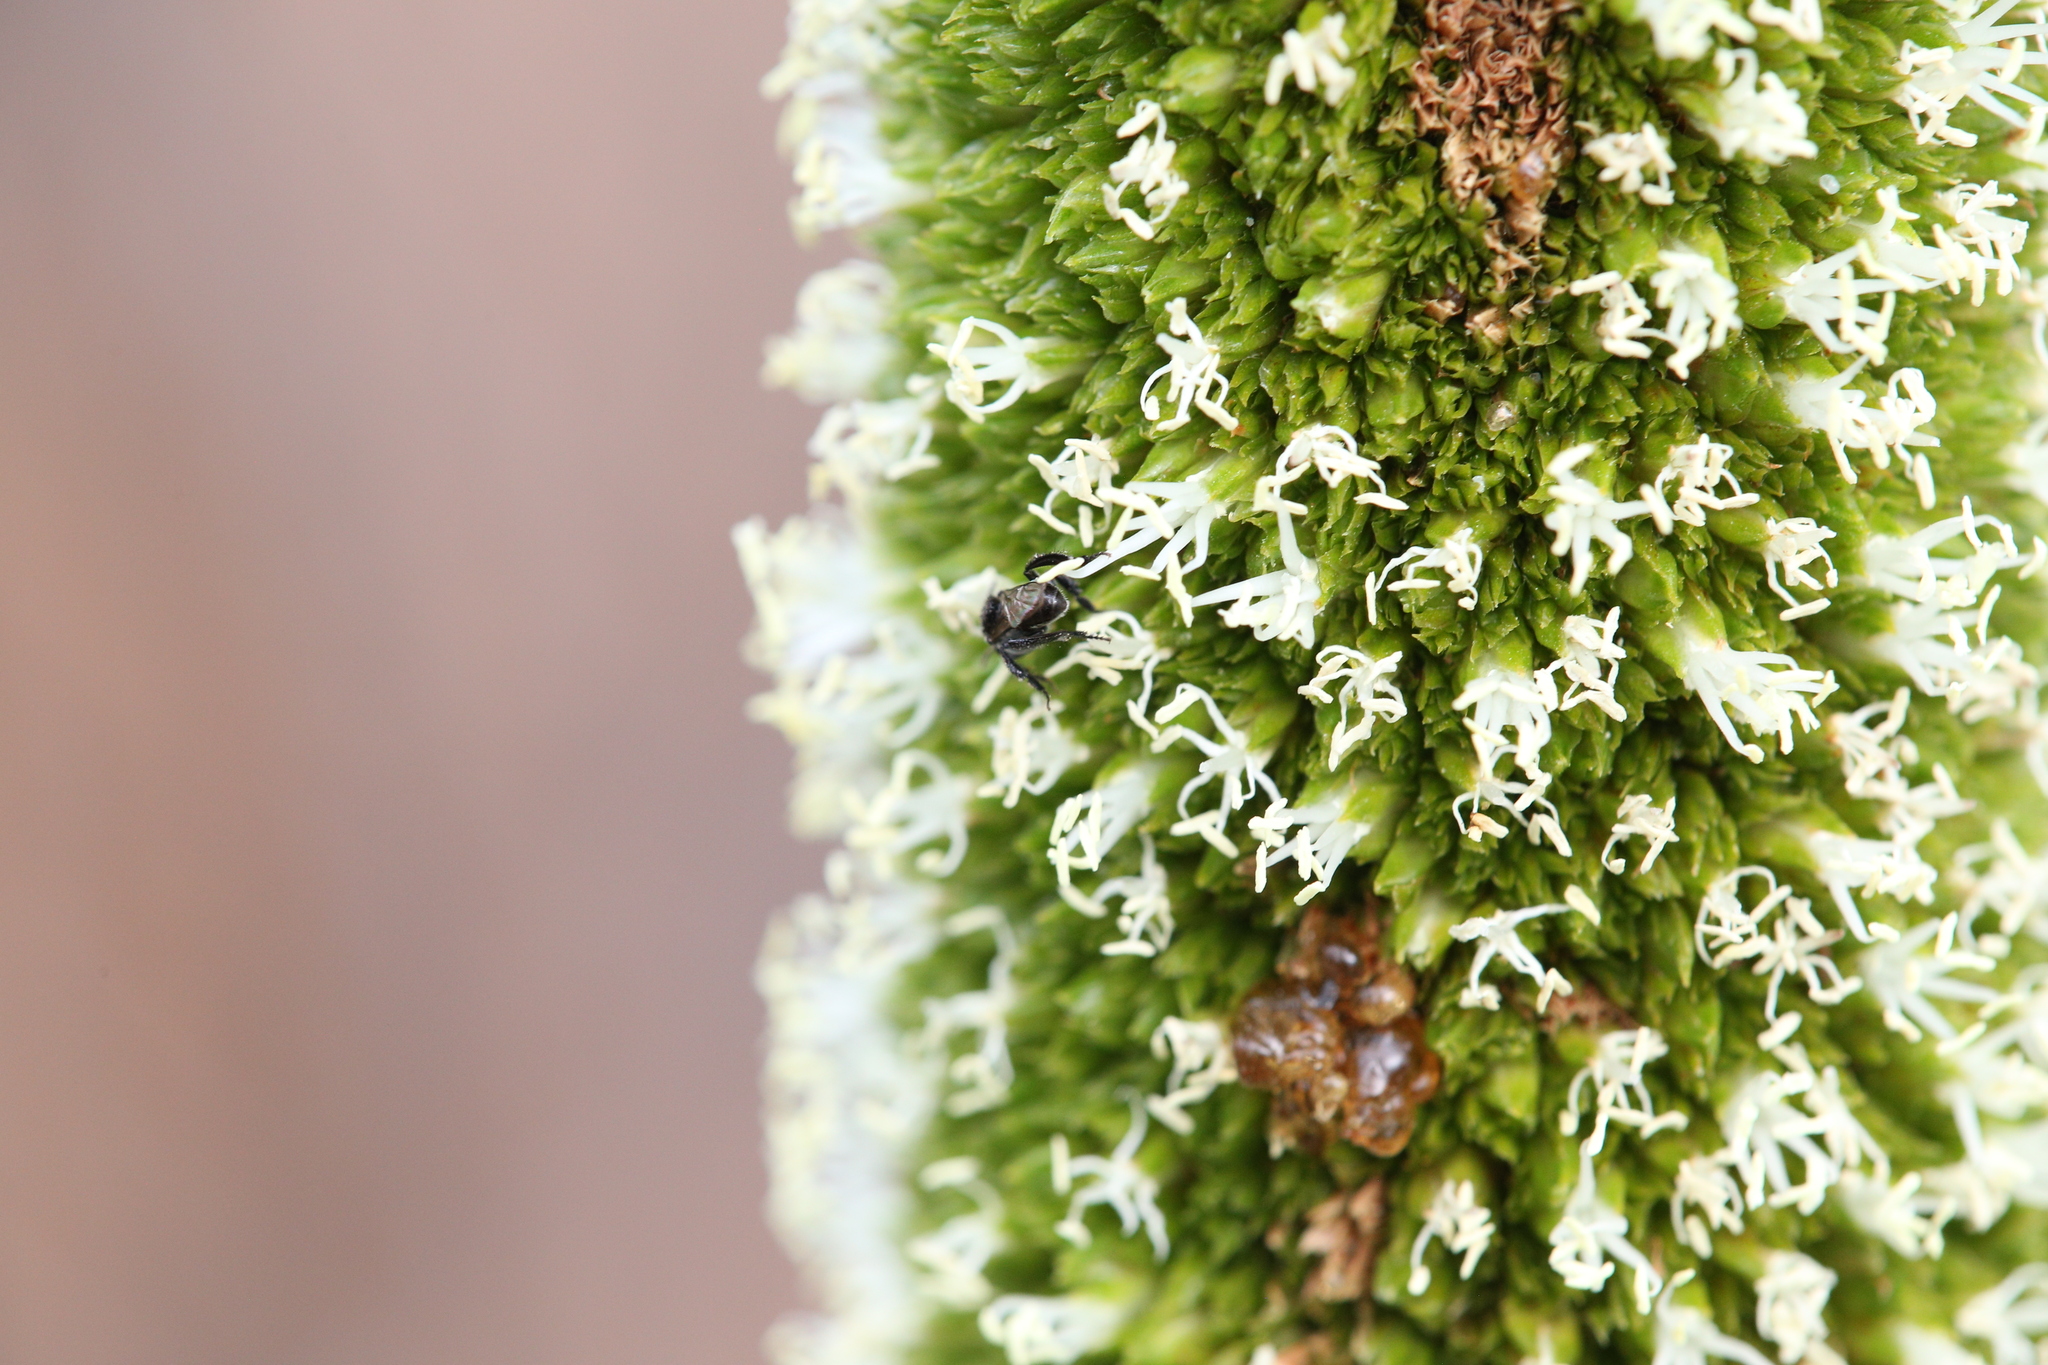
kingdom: Plantae
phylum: Tracheophyta
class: Liliopsida
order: Asparagales
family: Asphodelaceae
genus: Xanthorrhoea
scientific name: Xanthorrhoea johnsonii
